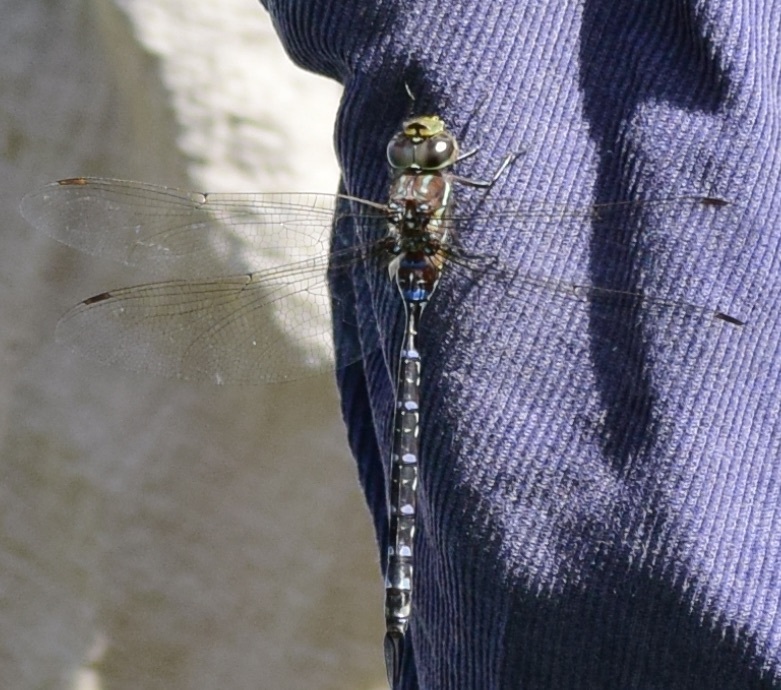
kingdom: Animalia
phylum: Arthropoda
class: Insecta
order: Odonata
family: Aeshnidae
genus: Aeshna
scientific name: Aeshna tuberculifera
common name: Aeschne à tubercules
